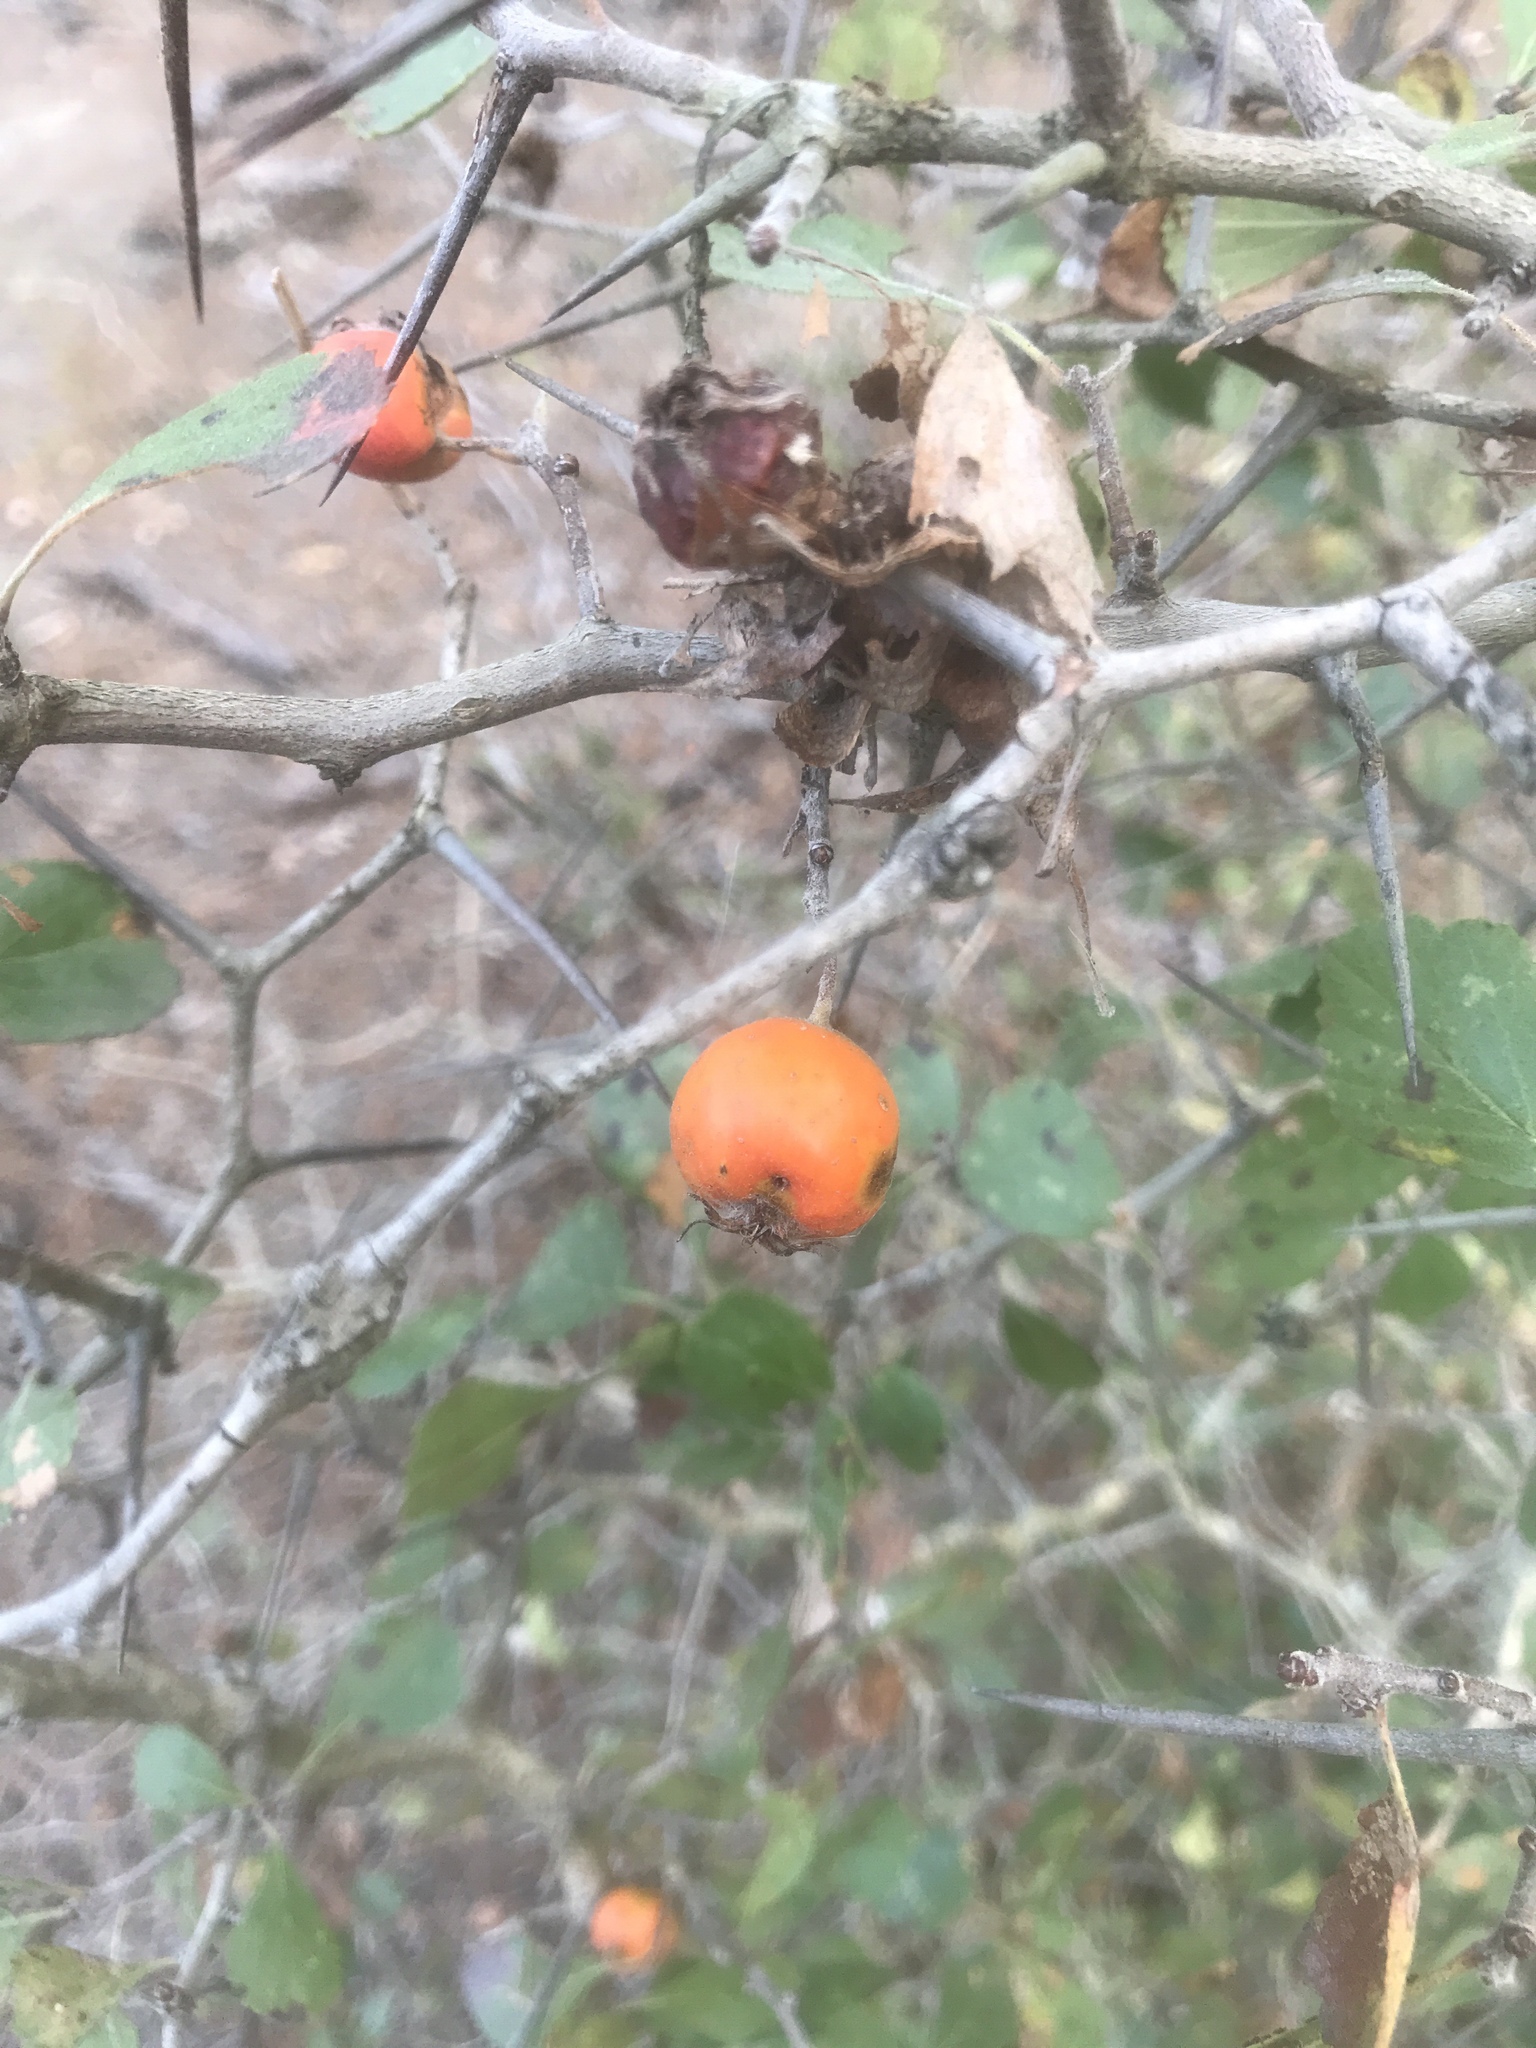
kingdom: Plantae
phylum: Tracheophyta
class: Magnoliopsida
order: Rosales
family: Rosaceae
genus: Crataegus
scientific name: Crataegus uniflora
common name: One-flower hawthorn
